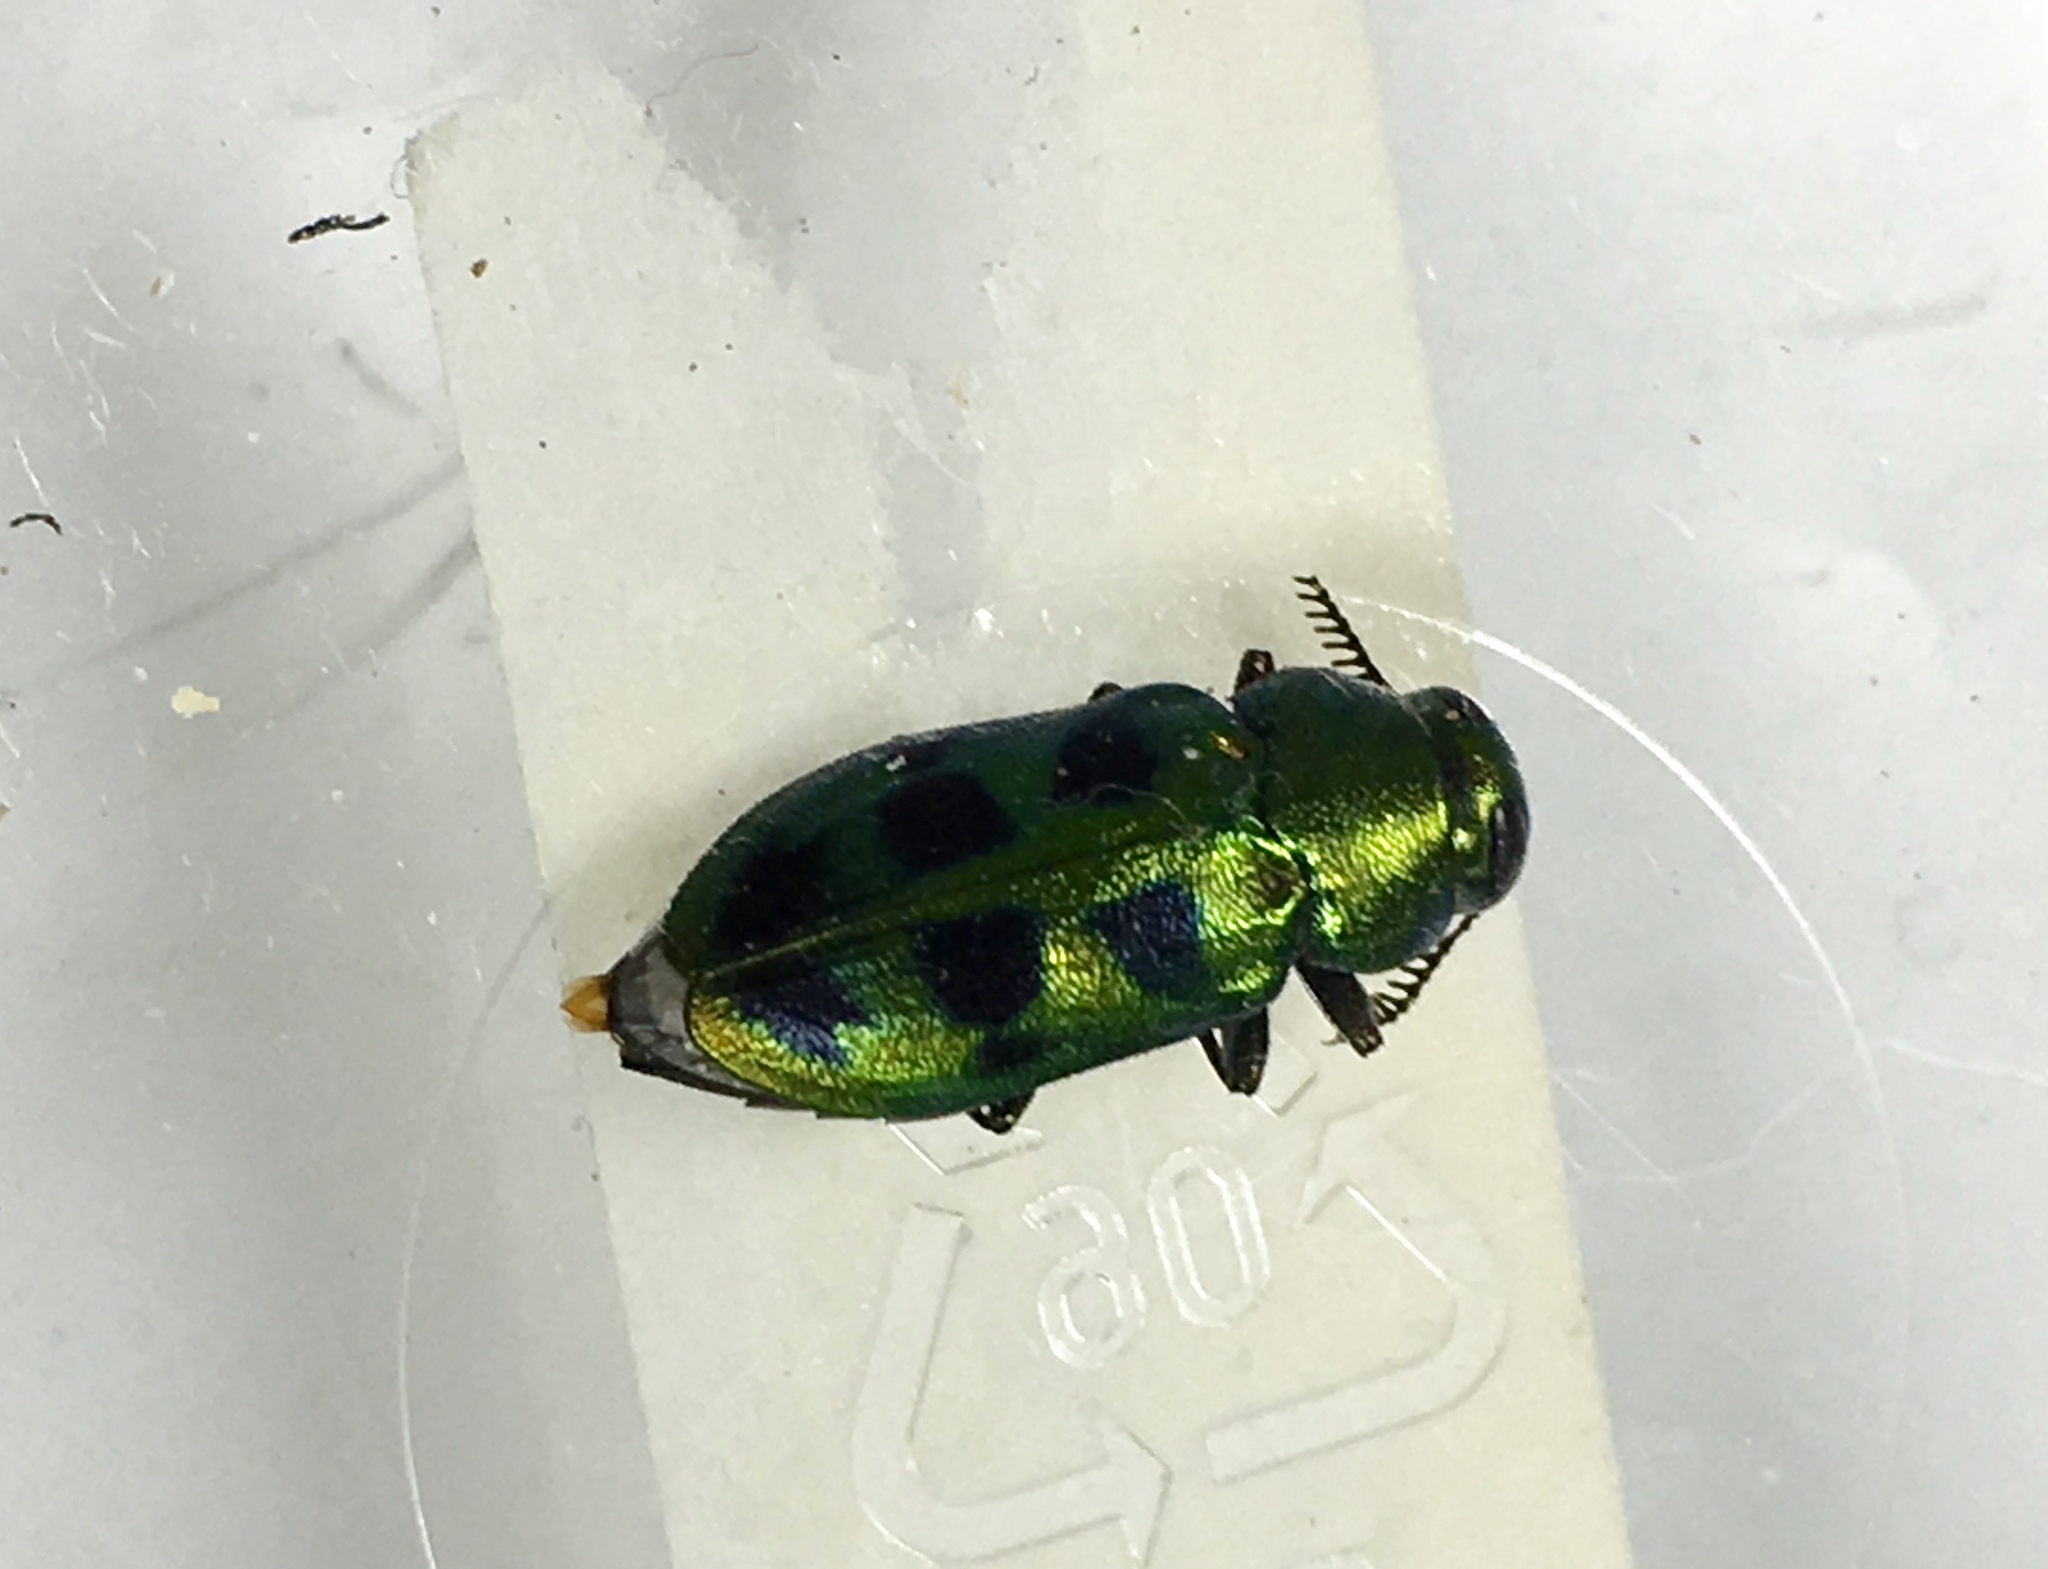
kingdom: Animalia
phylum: Arthropoda
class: Insecta
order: Coleoptera
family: Buprestidae
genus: Knowltonia
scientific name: Knowltonia calida
